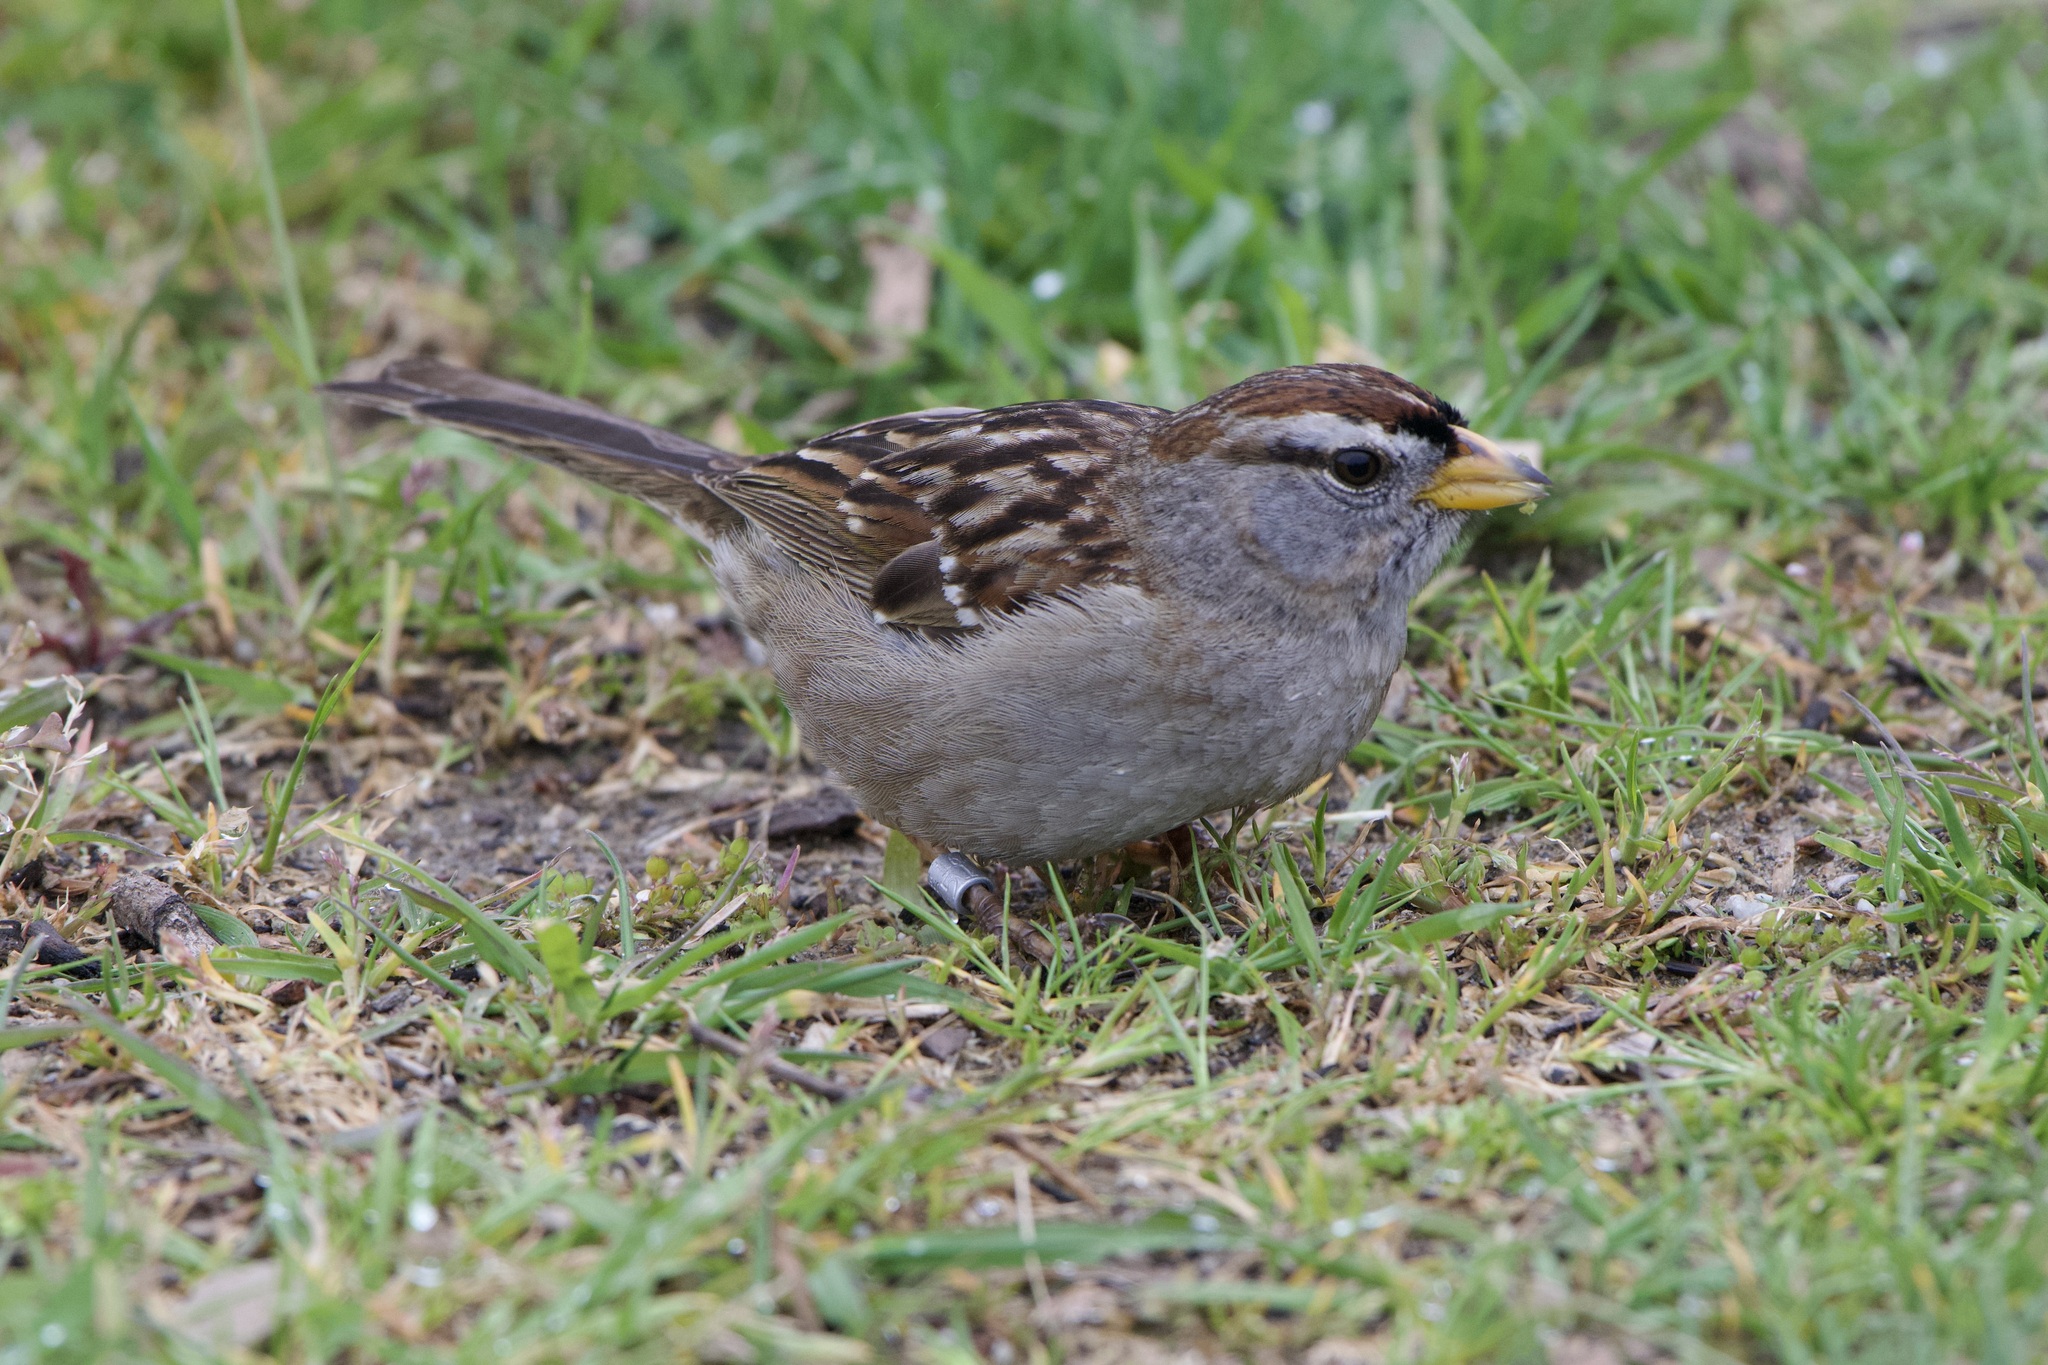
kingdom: Animalia
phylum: Chordata
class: Aves
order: Passeriformes
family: Passerellidae
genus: Zonotrichia
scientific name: Zonotrichia leucophrys
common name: White-crowned sparrow
